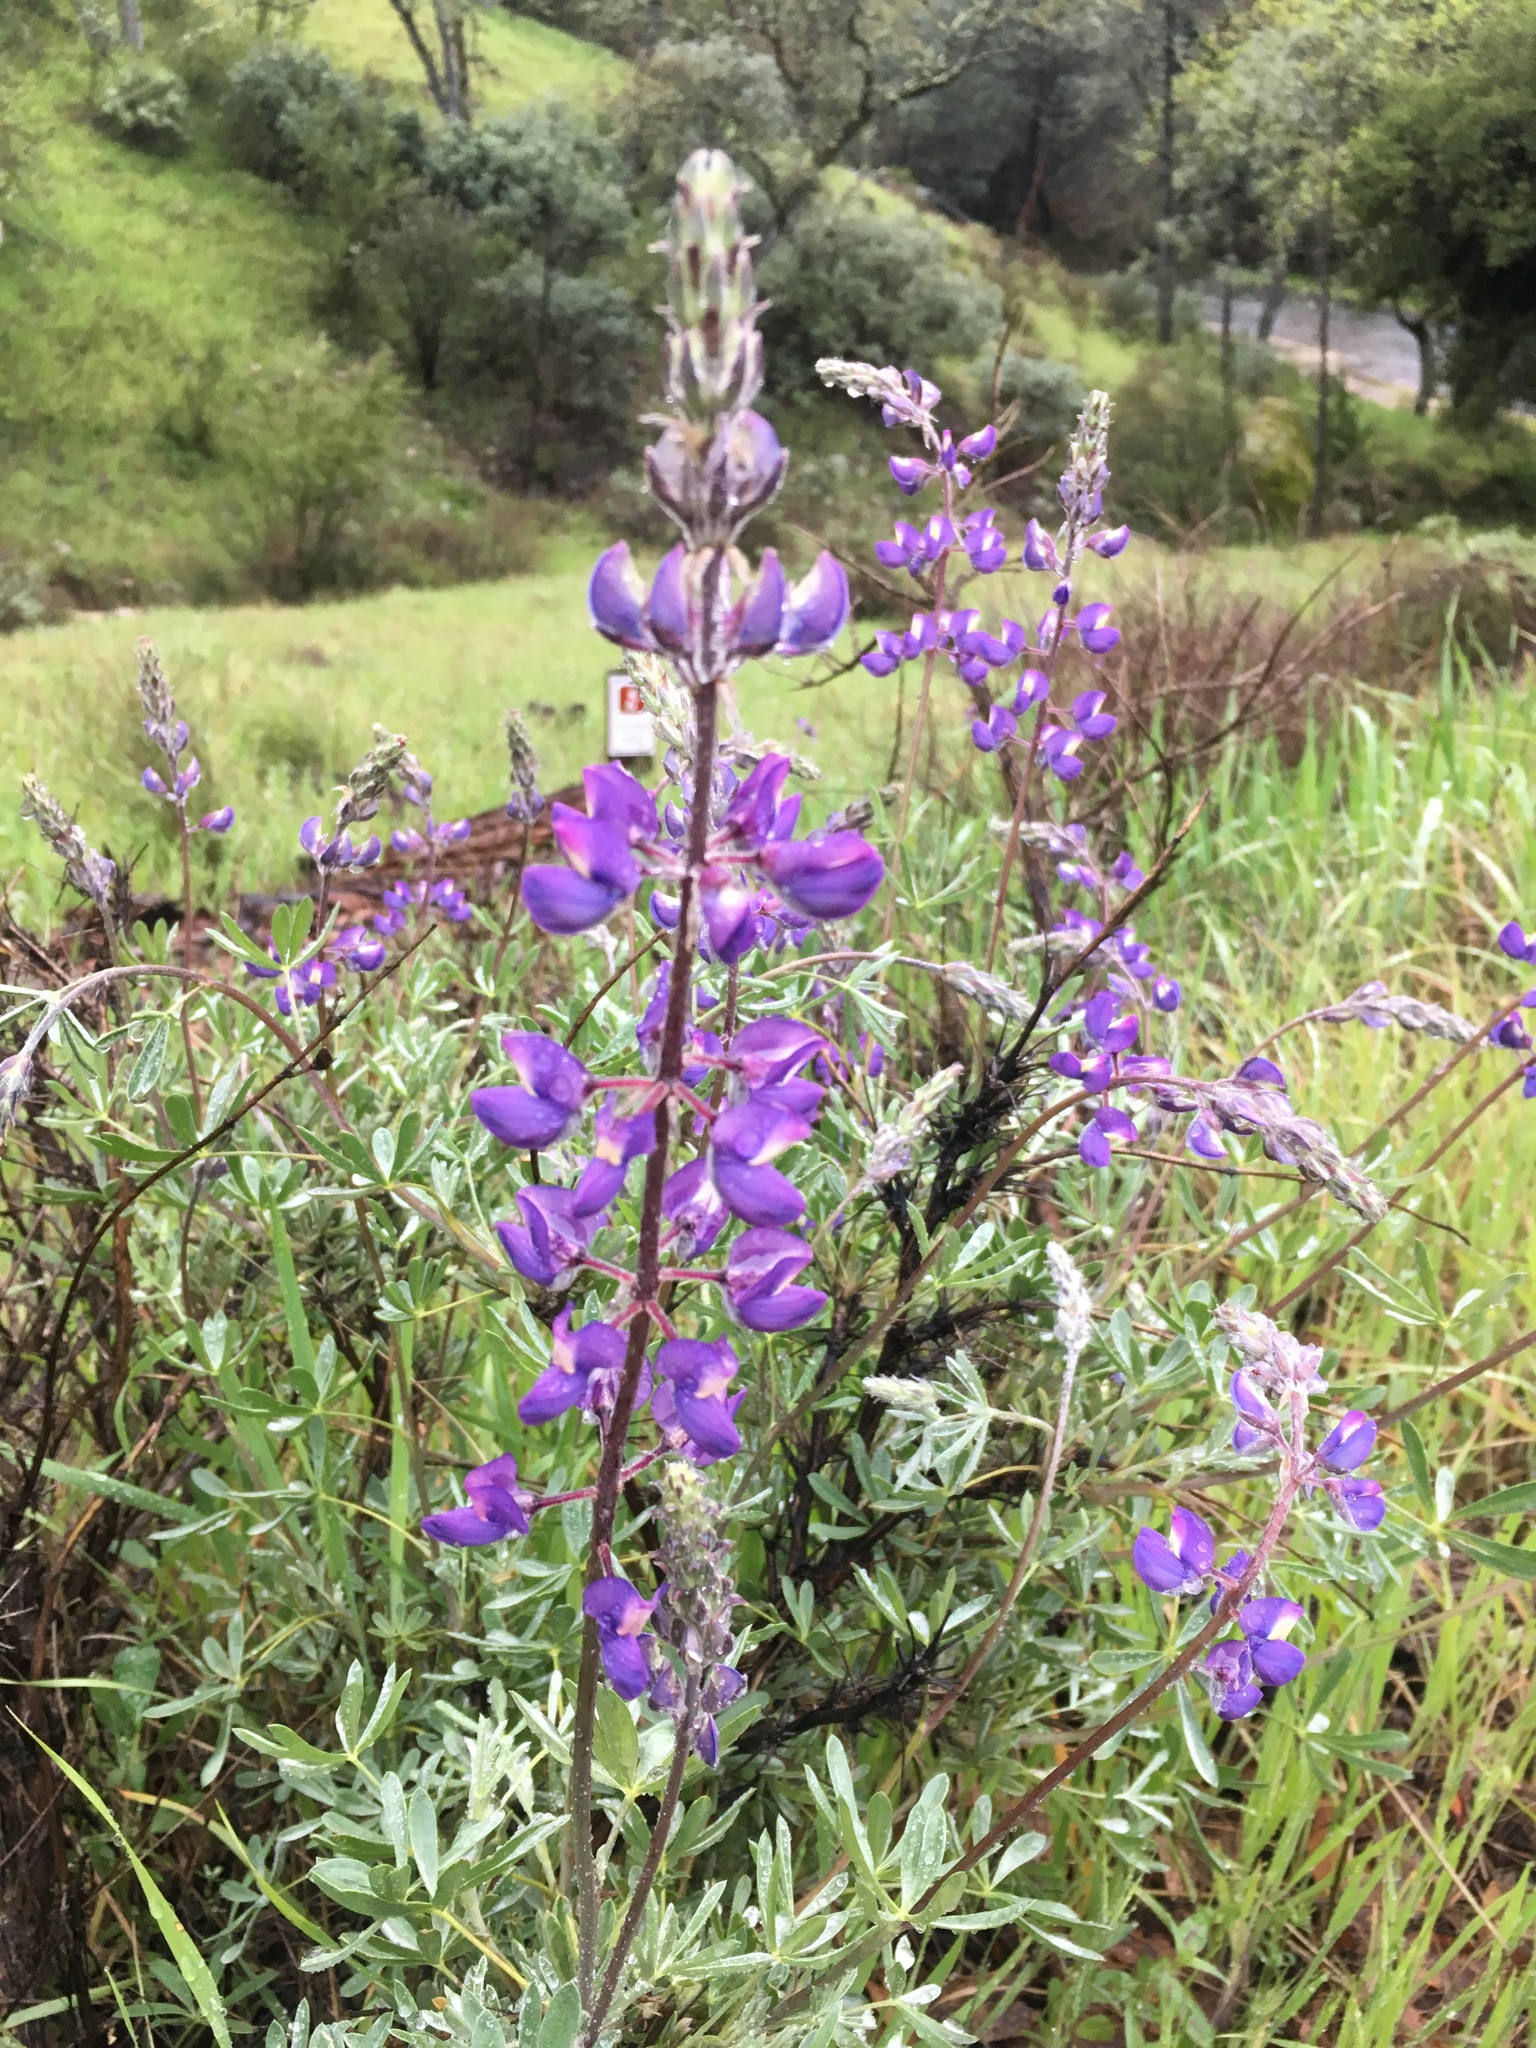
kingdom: Plantae
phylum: Tracheophyta
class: Magnoliopsida
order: Fabales
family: Fabaceae
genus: Lupinus
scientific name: Lupinus albifrons
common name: Foothill lupine
